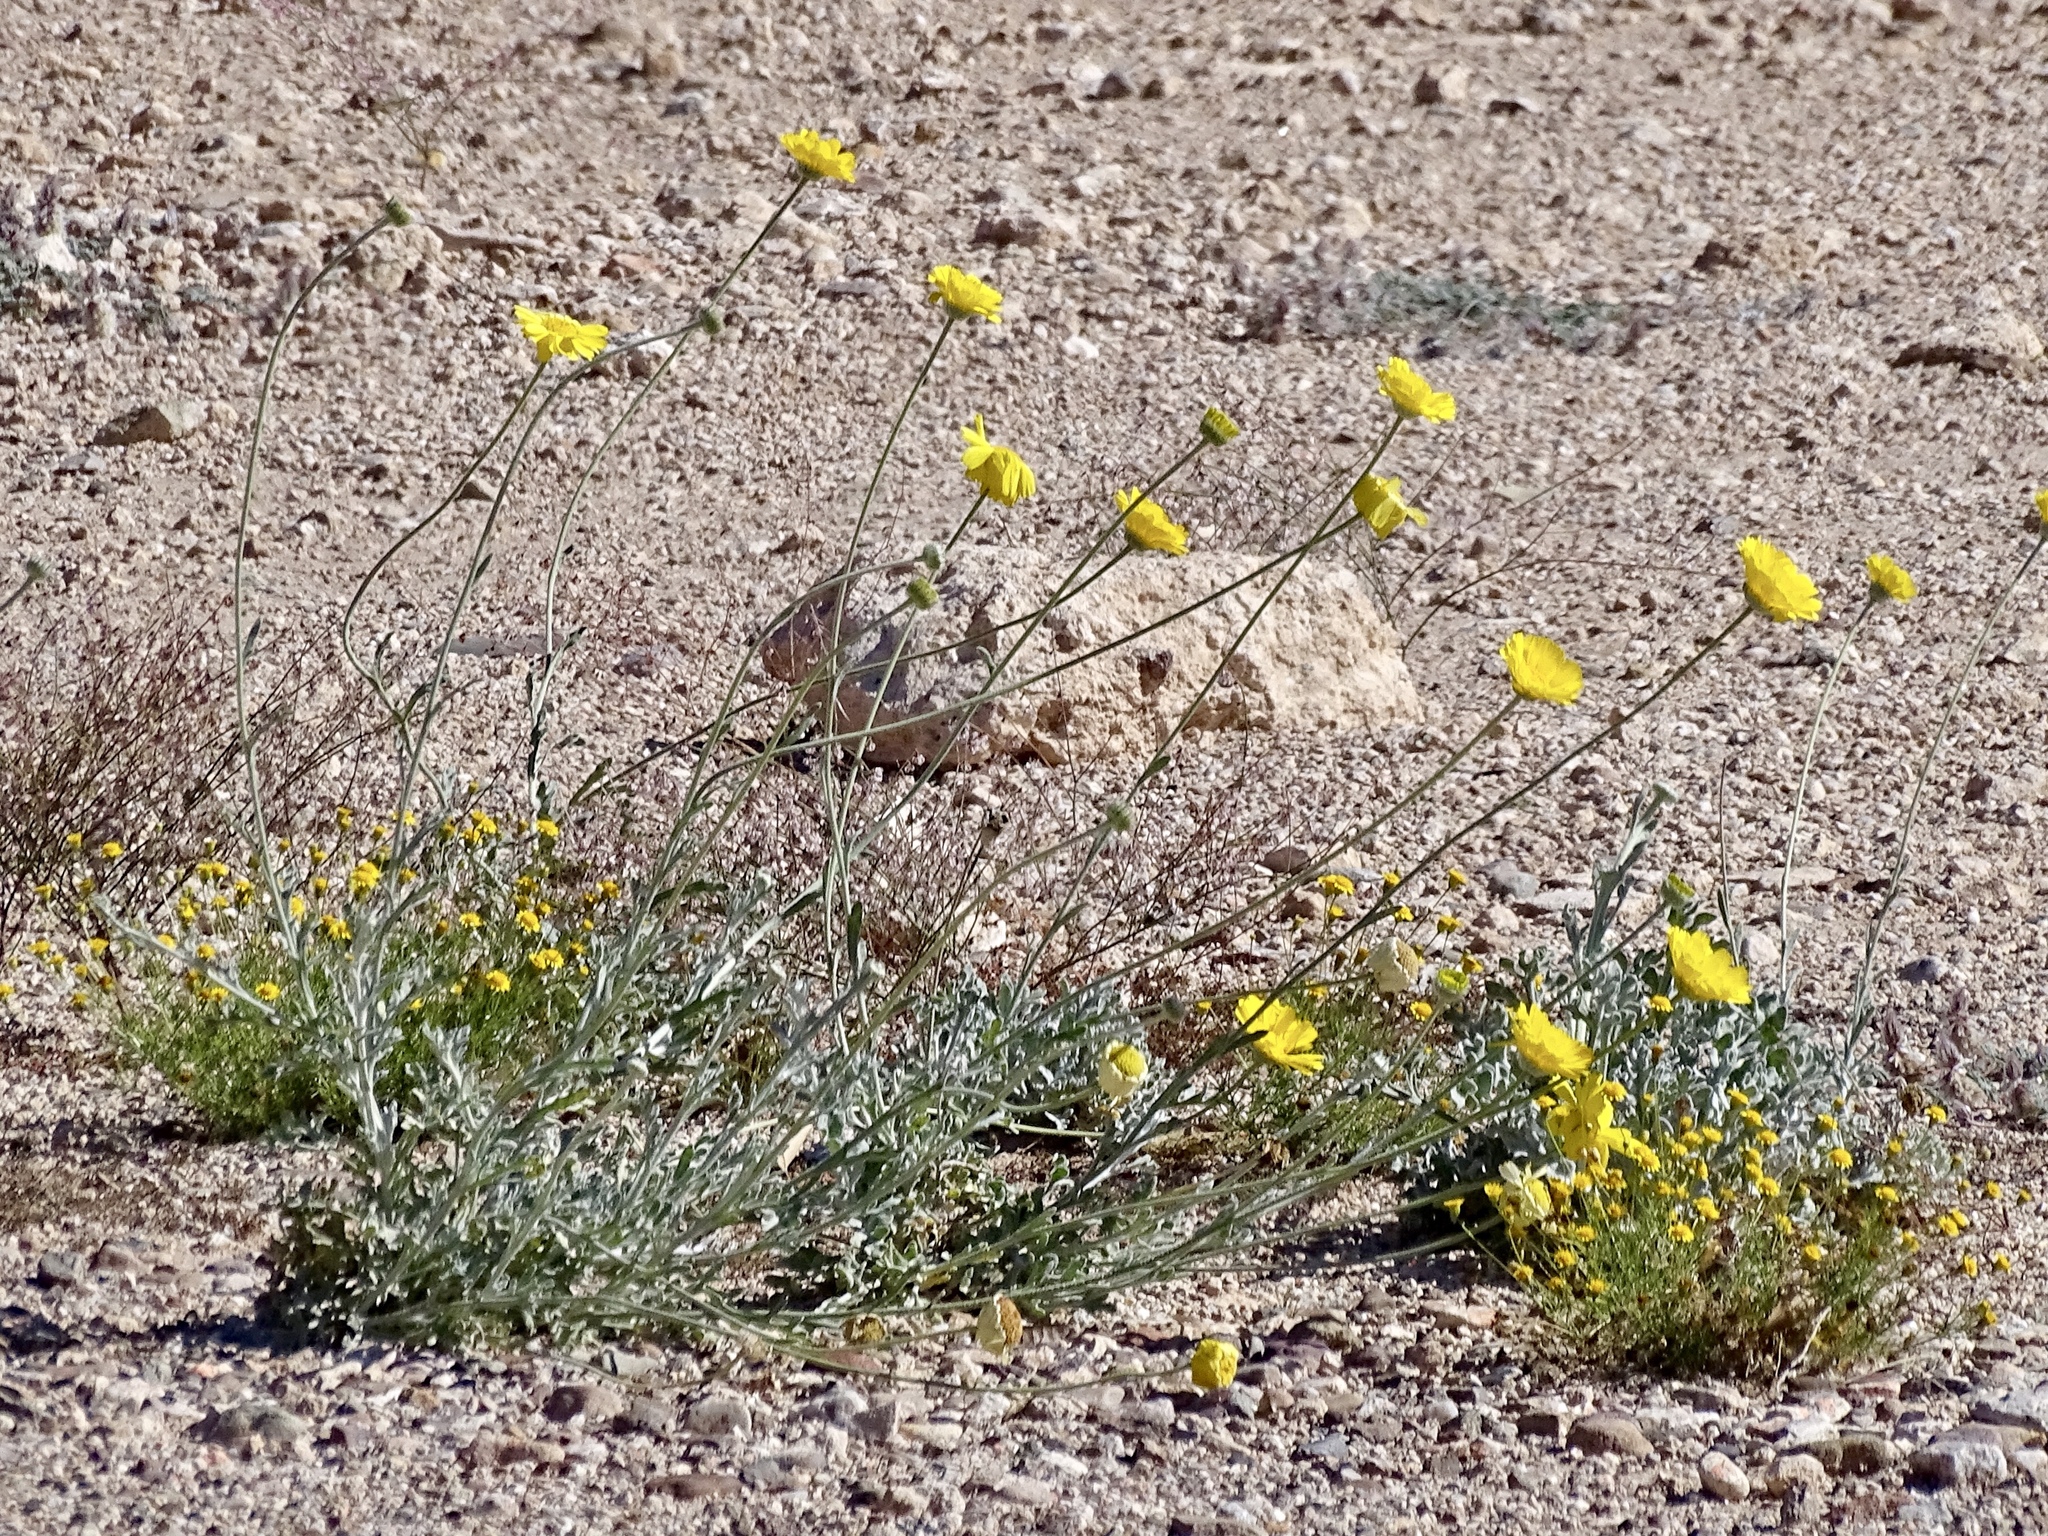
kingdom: Plantae
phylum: Tracheophyta
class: Magnoliopsida
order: Asterales
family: Asteraceae
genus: Baileya
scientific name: Baileya multiradiata
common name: Desert-marigold
